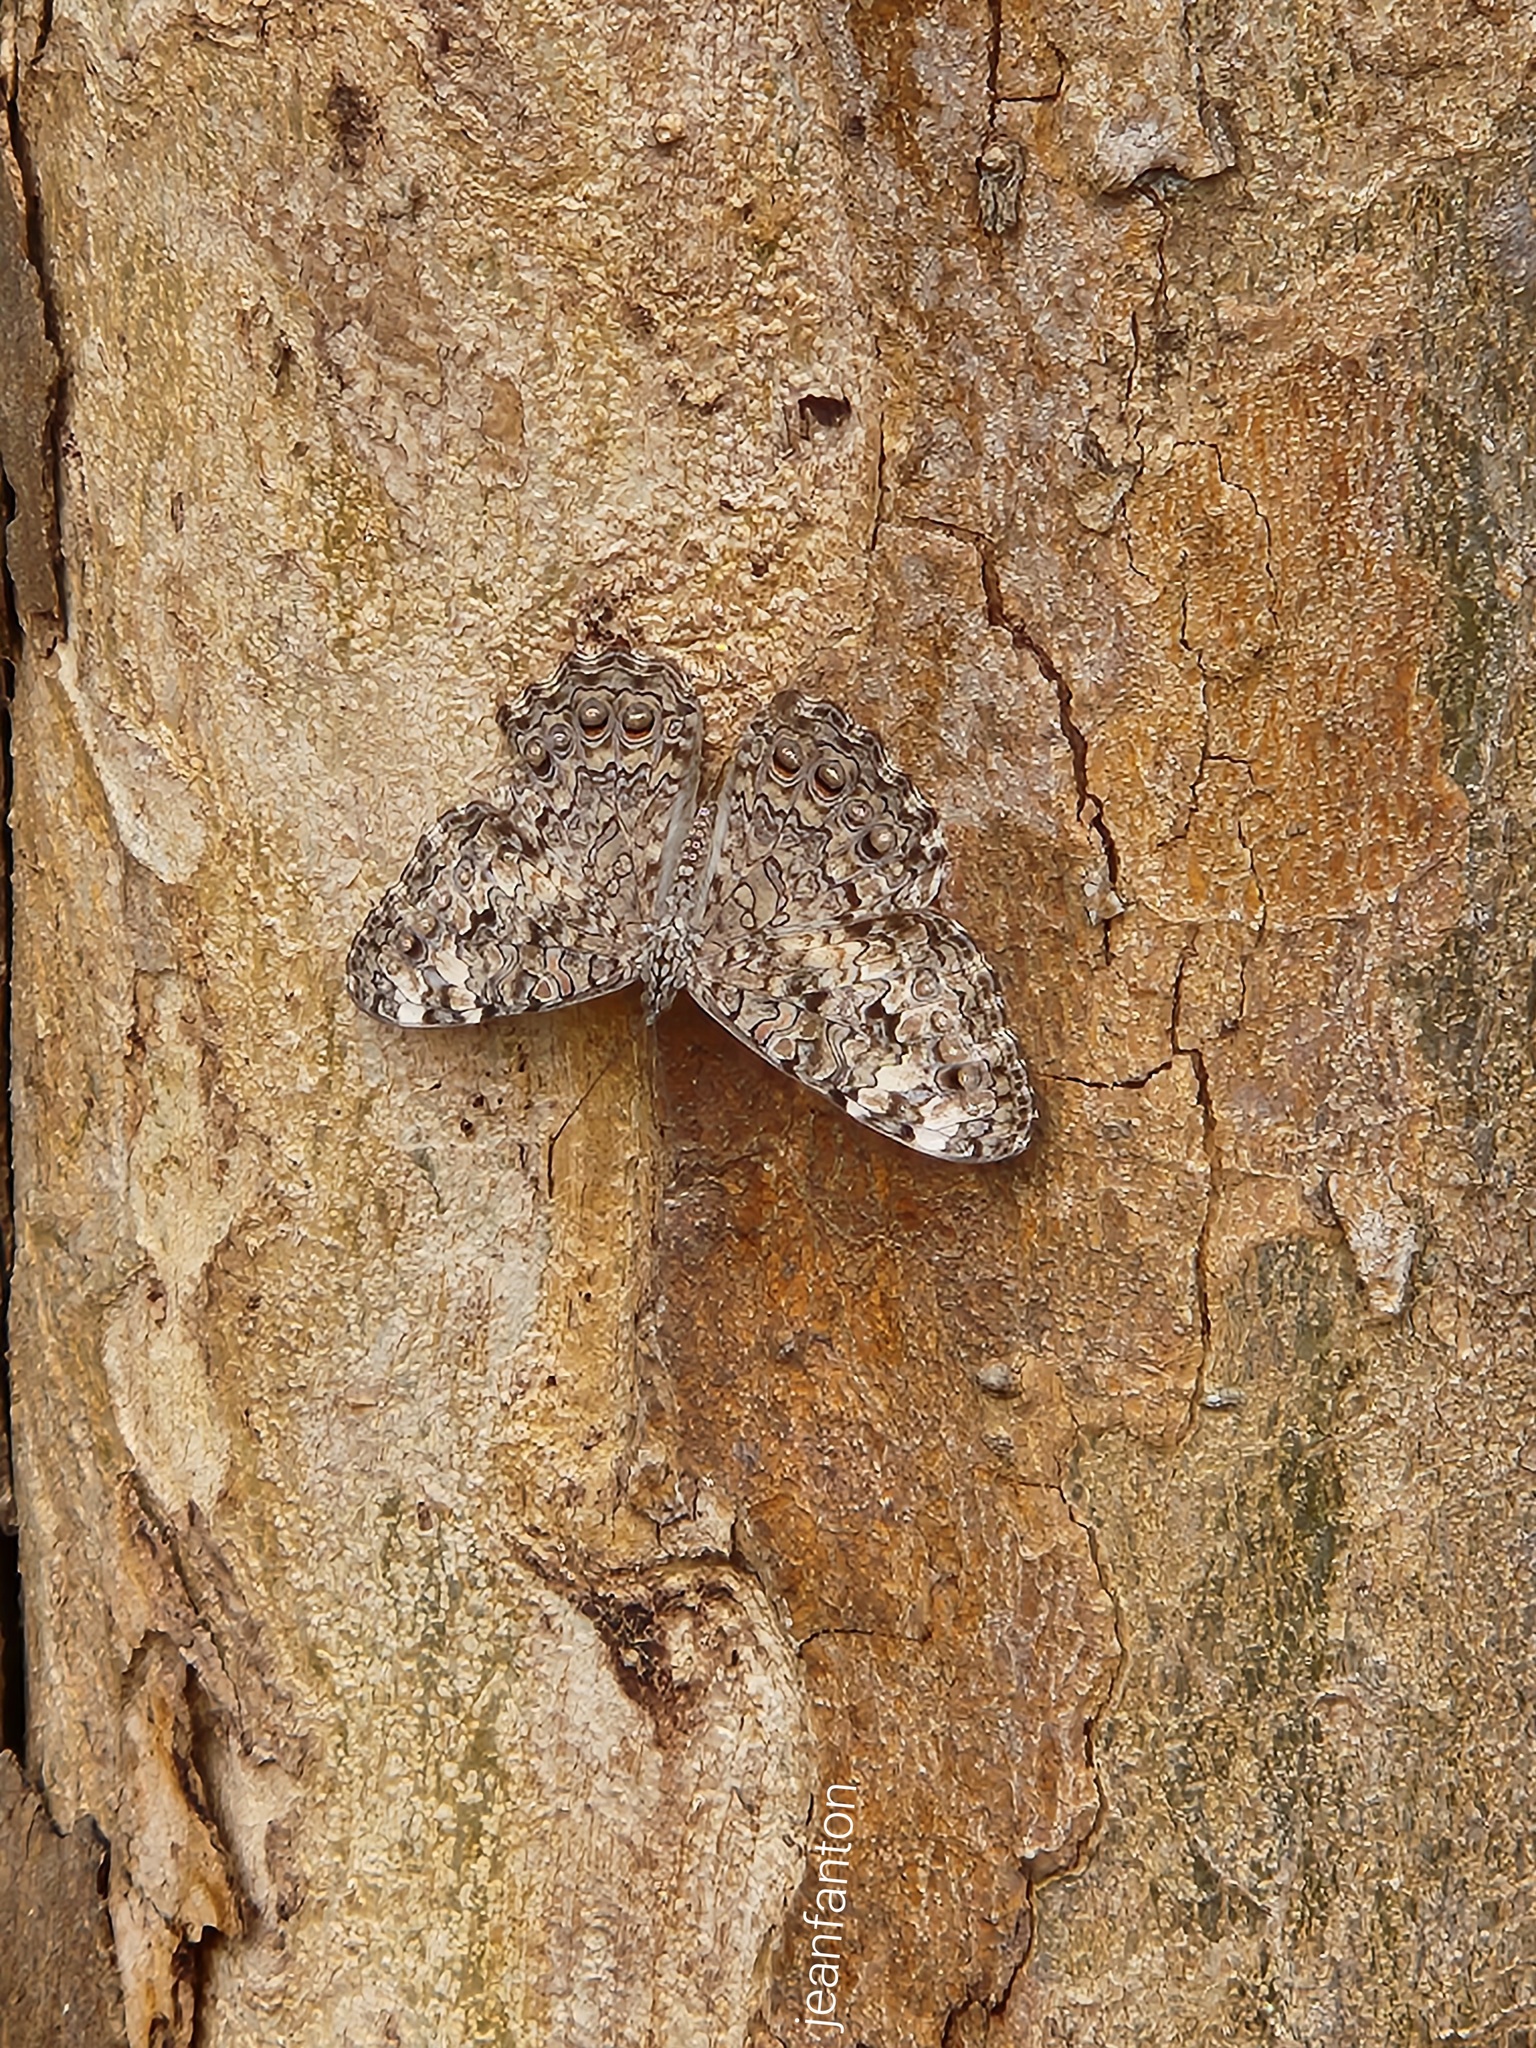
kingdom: Animalia
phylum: Arthropoda
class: Insecta
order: Lepidoptera
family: Nymphalidae
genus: Hamadryas
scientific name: Hamadryas februa
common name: Gray cracker
